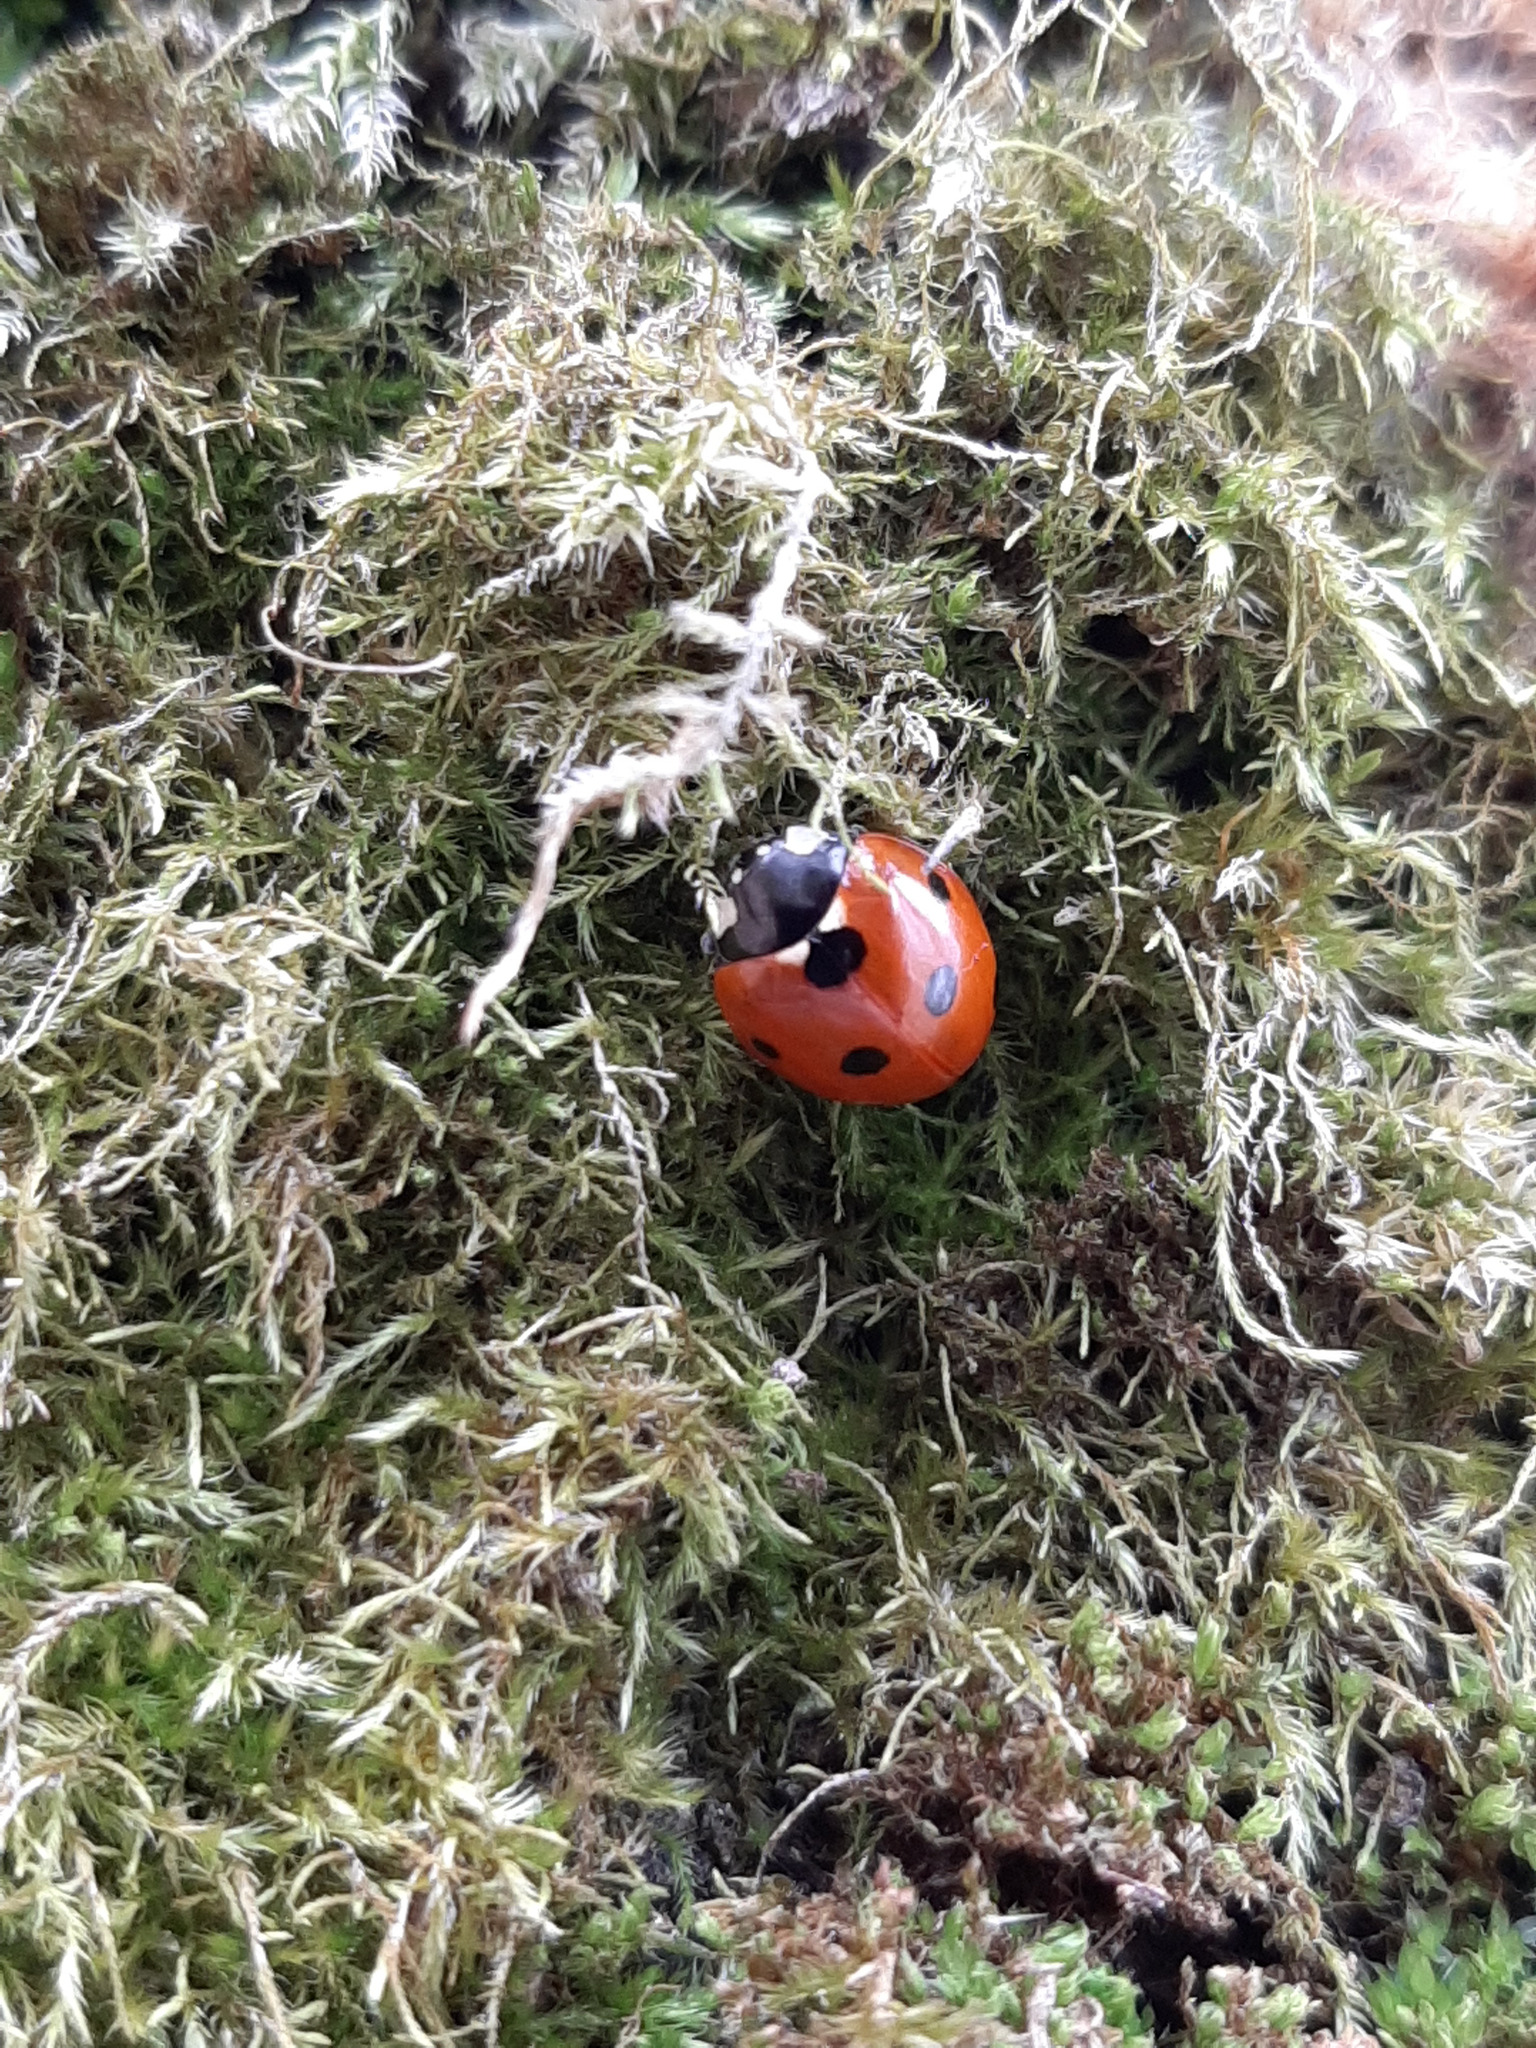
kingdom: Animalia
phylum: Arthropoda
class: Insecta
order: Coleoptera
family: Coccinellidae
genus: Coccinella
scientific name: Coccinella septempunctata
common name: Sevenspotted lady beetle
